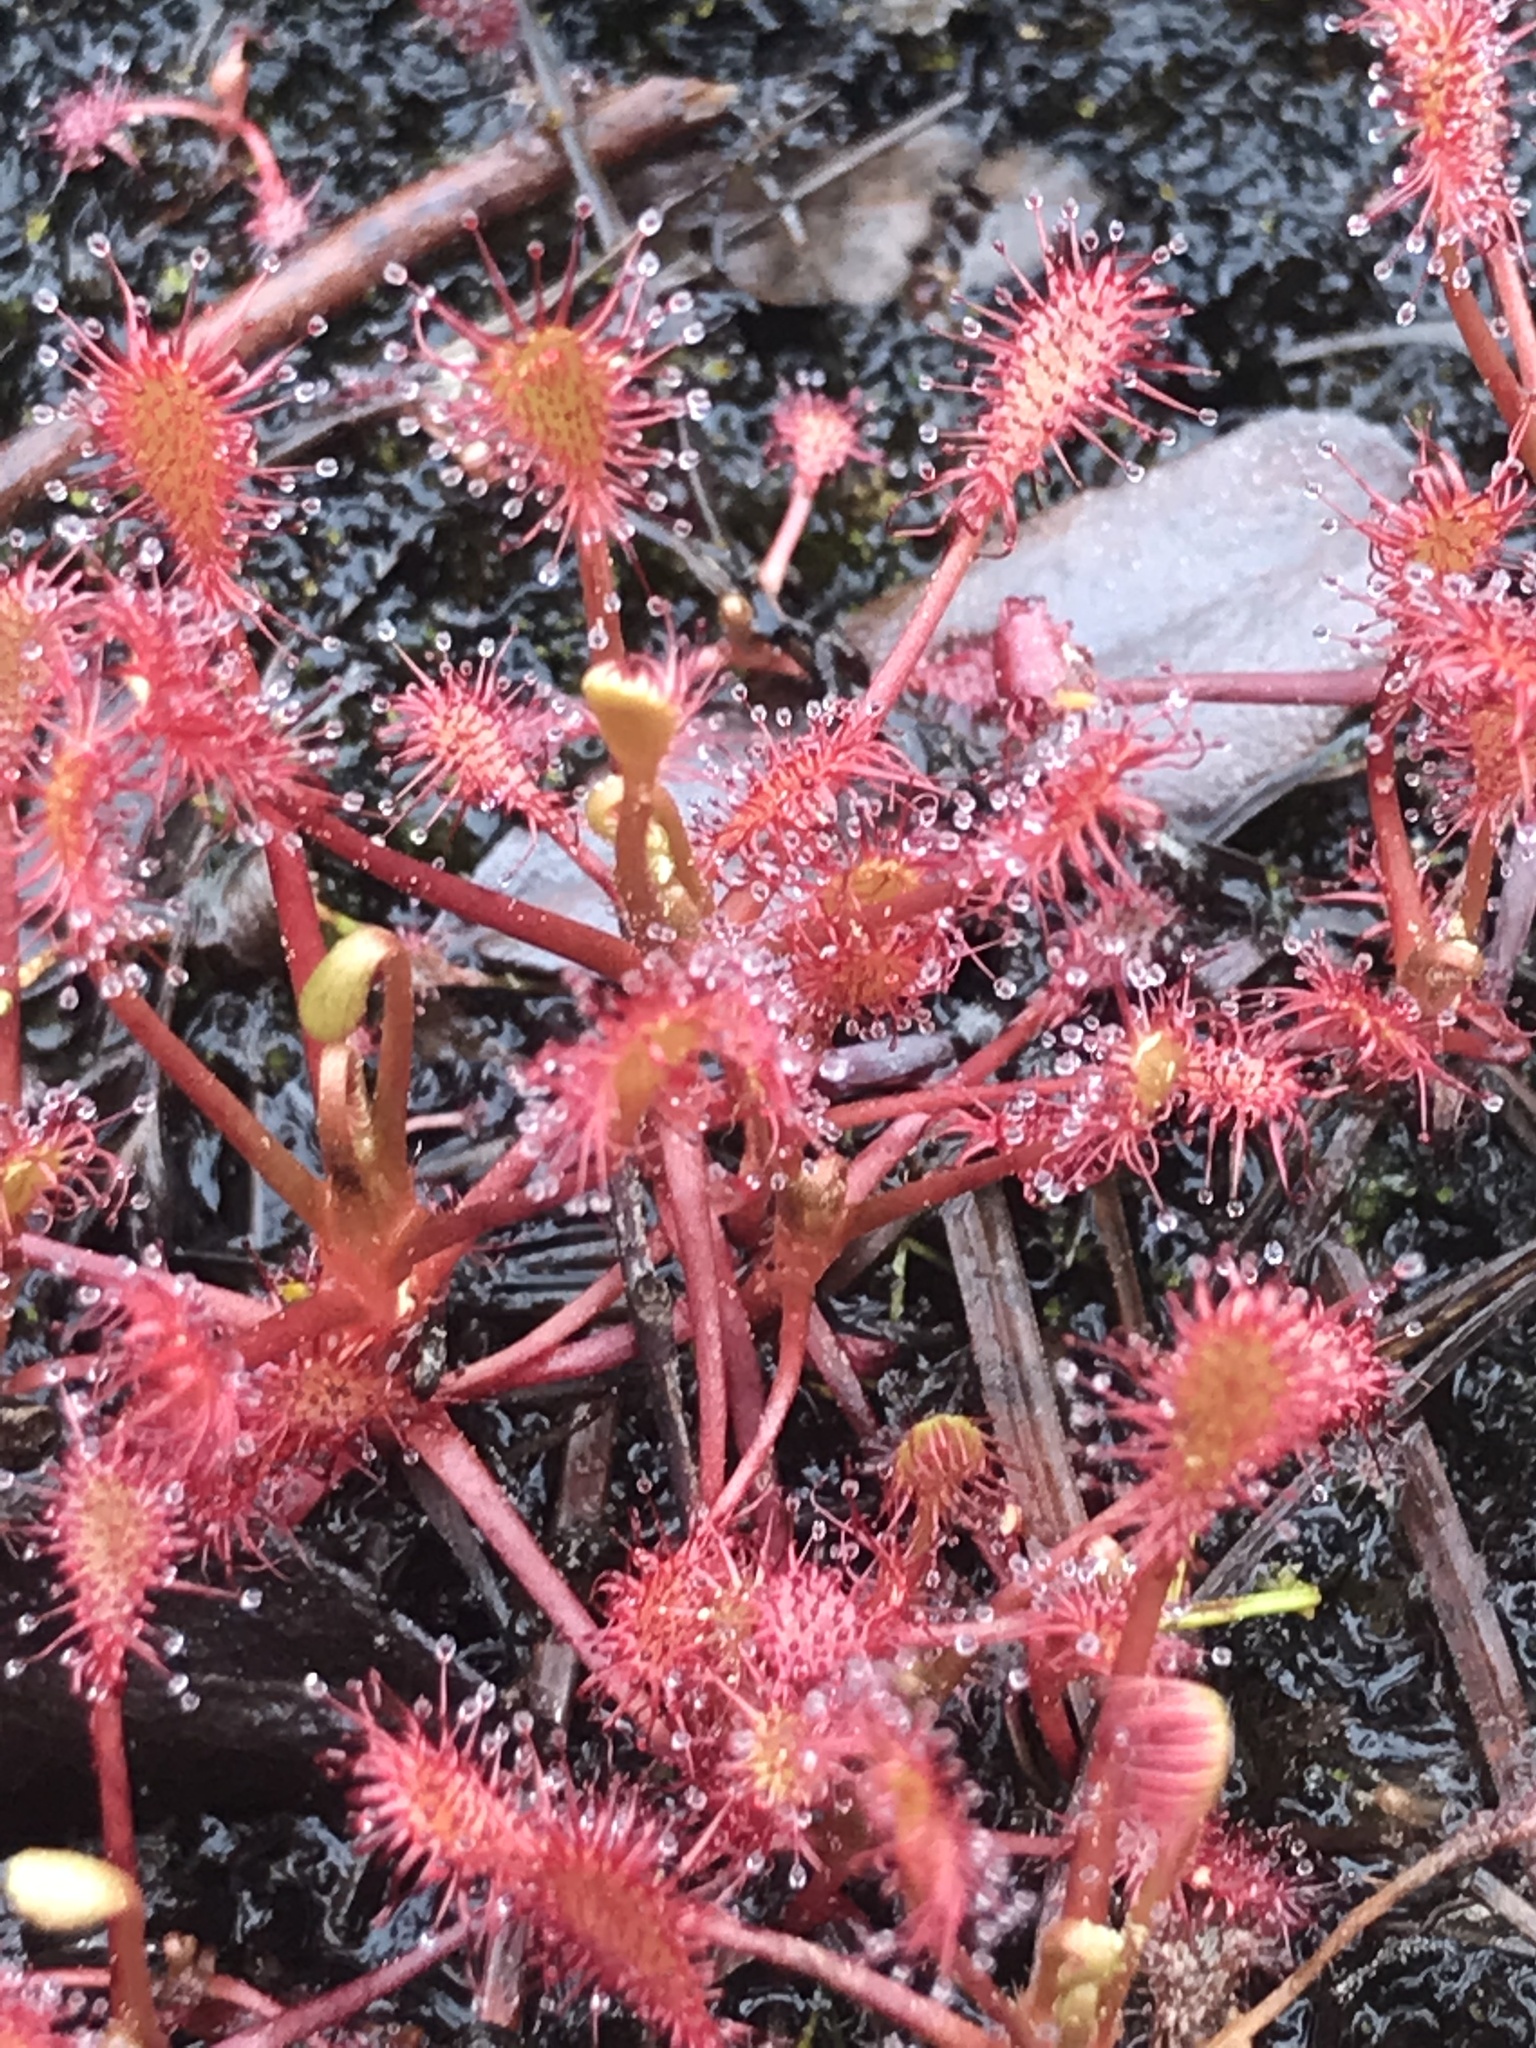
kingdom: Plantae
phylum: Tracheophyta
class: Magnoliopsida
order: Caryophyllales
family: Droseraceae
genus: Drosera
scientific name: Drosera intermedia
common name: Oblong-leaved sundew
